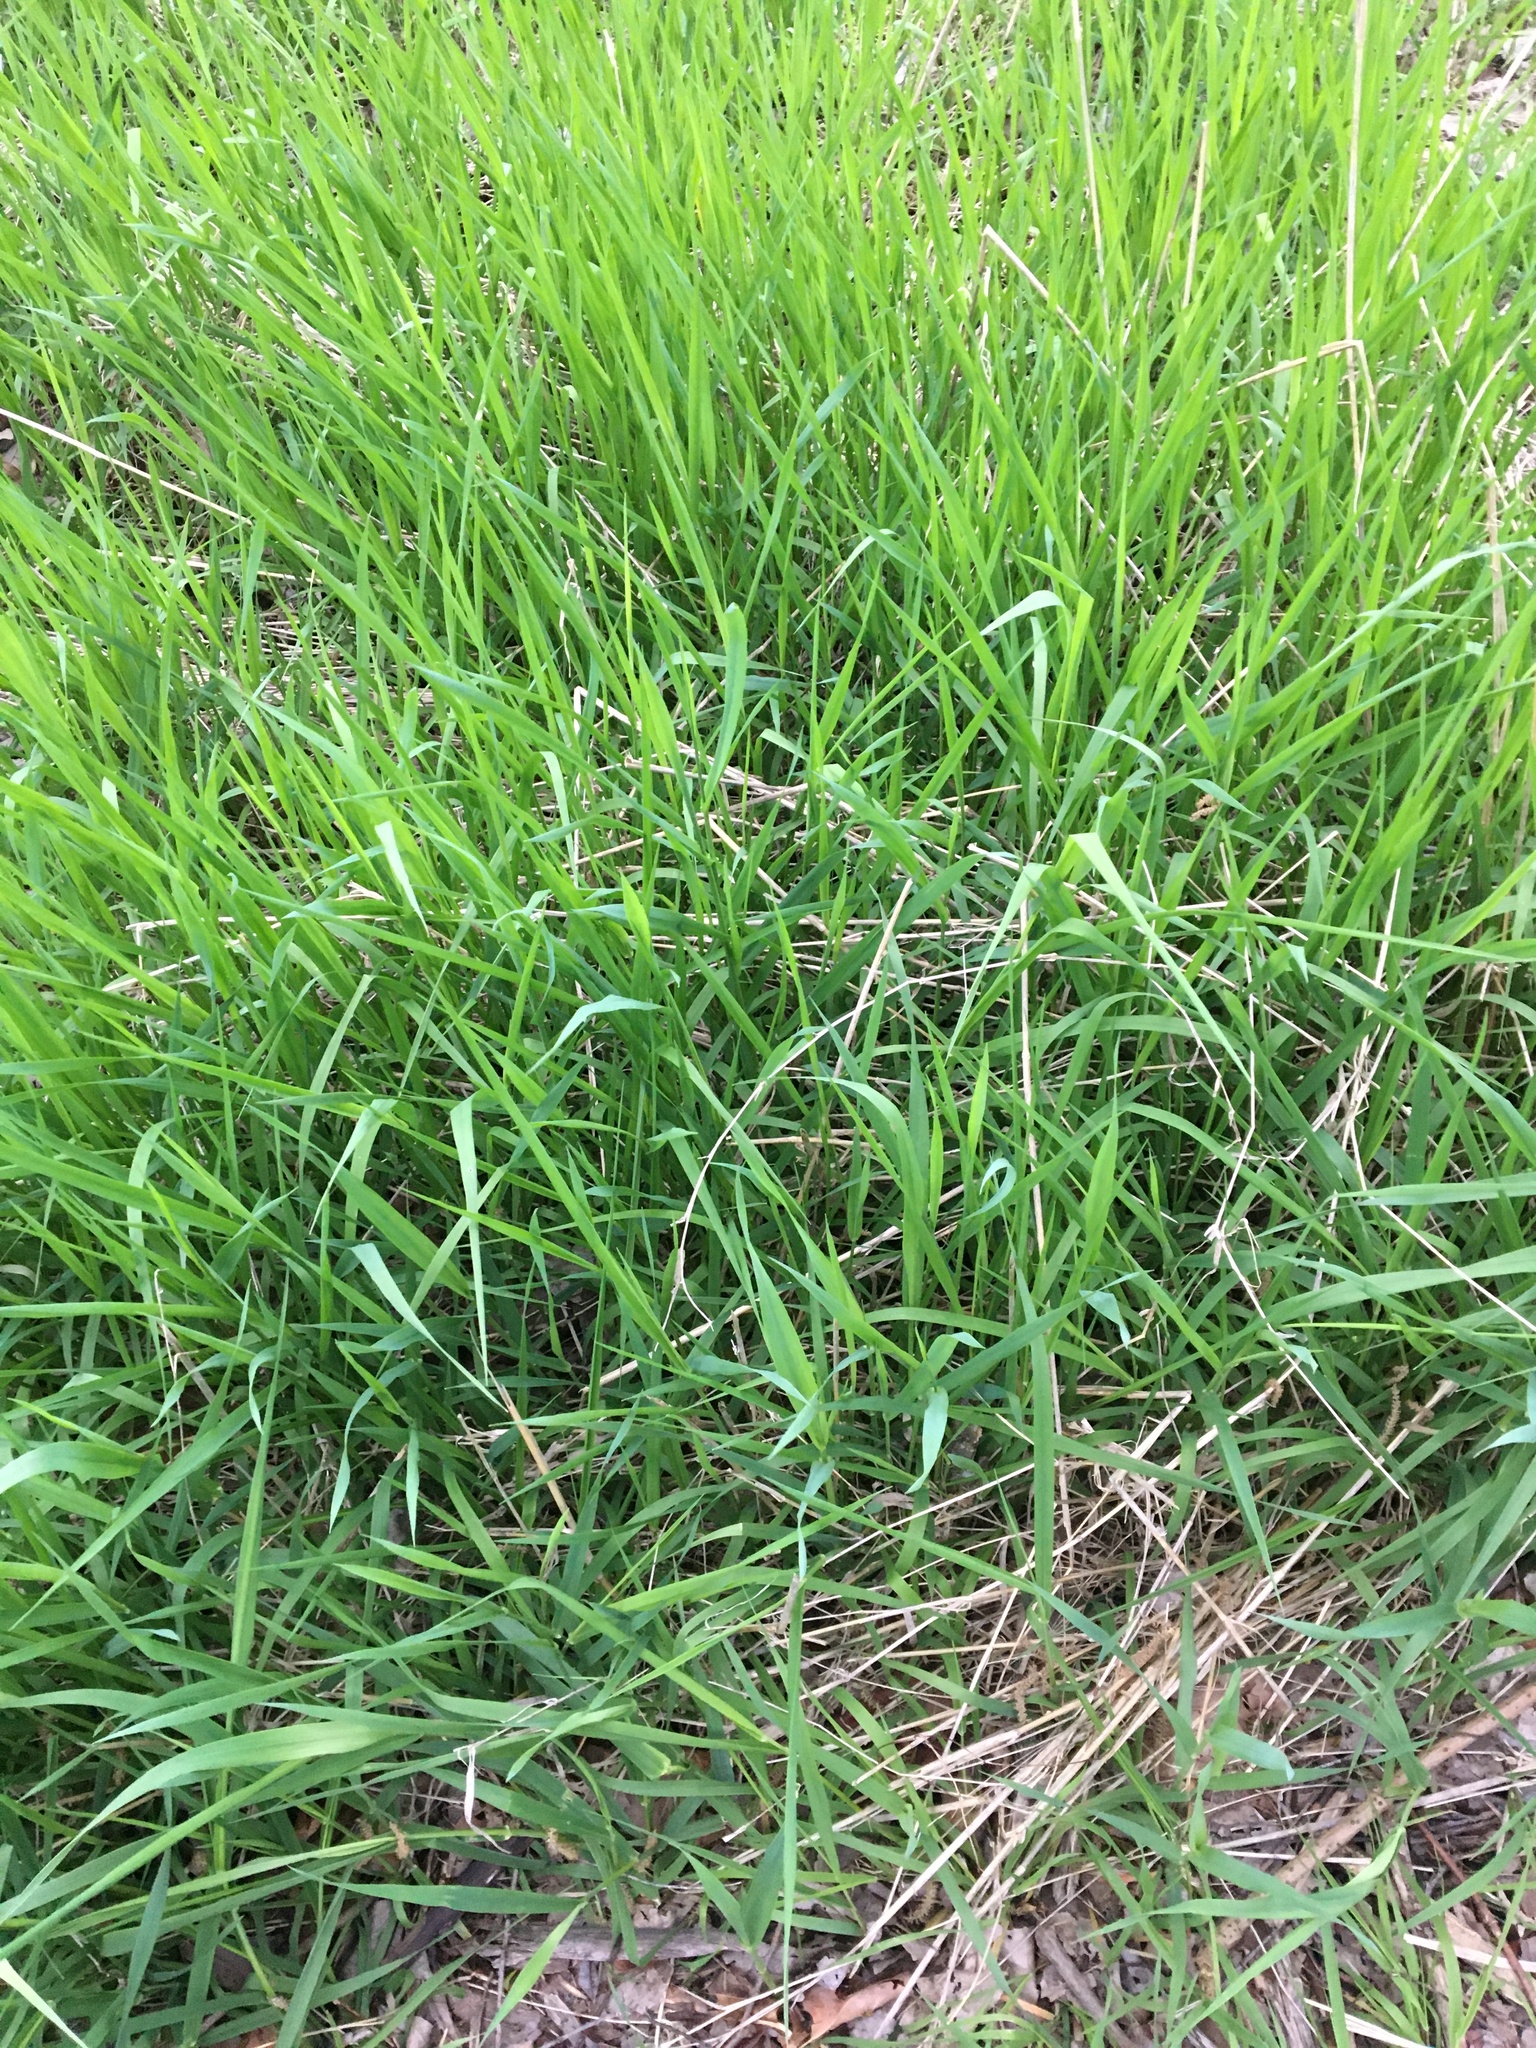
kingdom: Plantae
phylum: Tracheophyta
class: Liliopsida
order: Poales
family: Poaceae
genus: Phalaris
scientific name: Phalaris arundinacea
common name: Reed canary-grass
